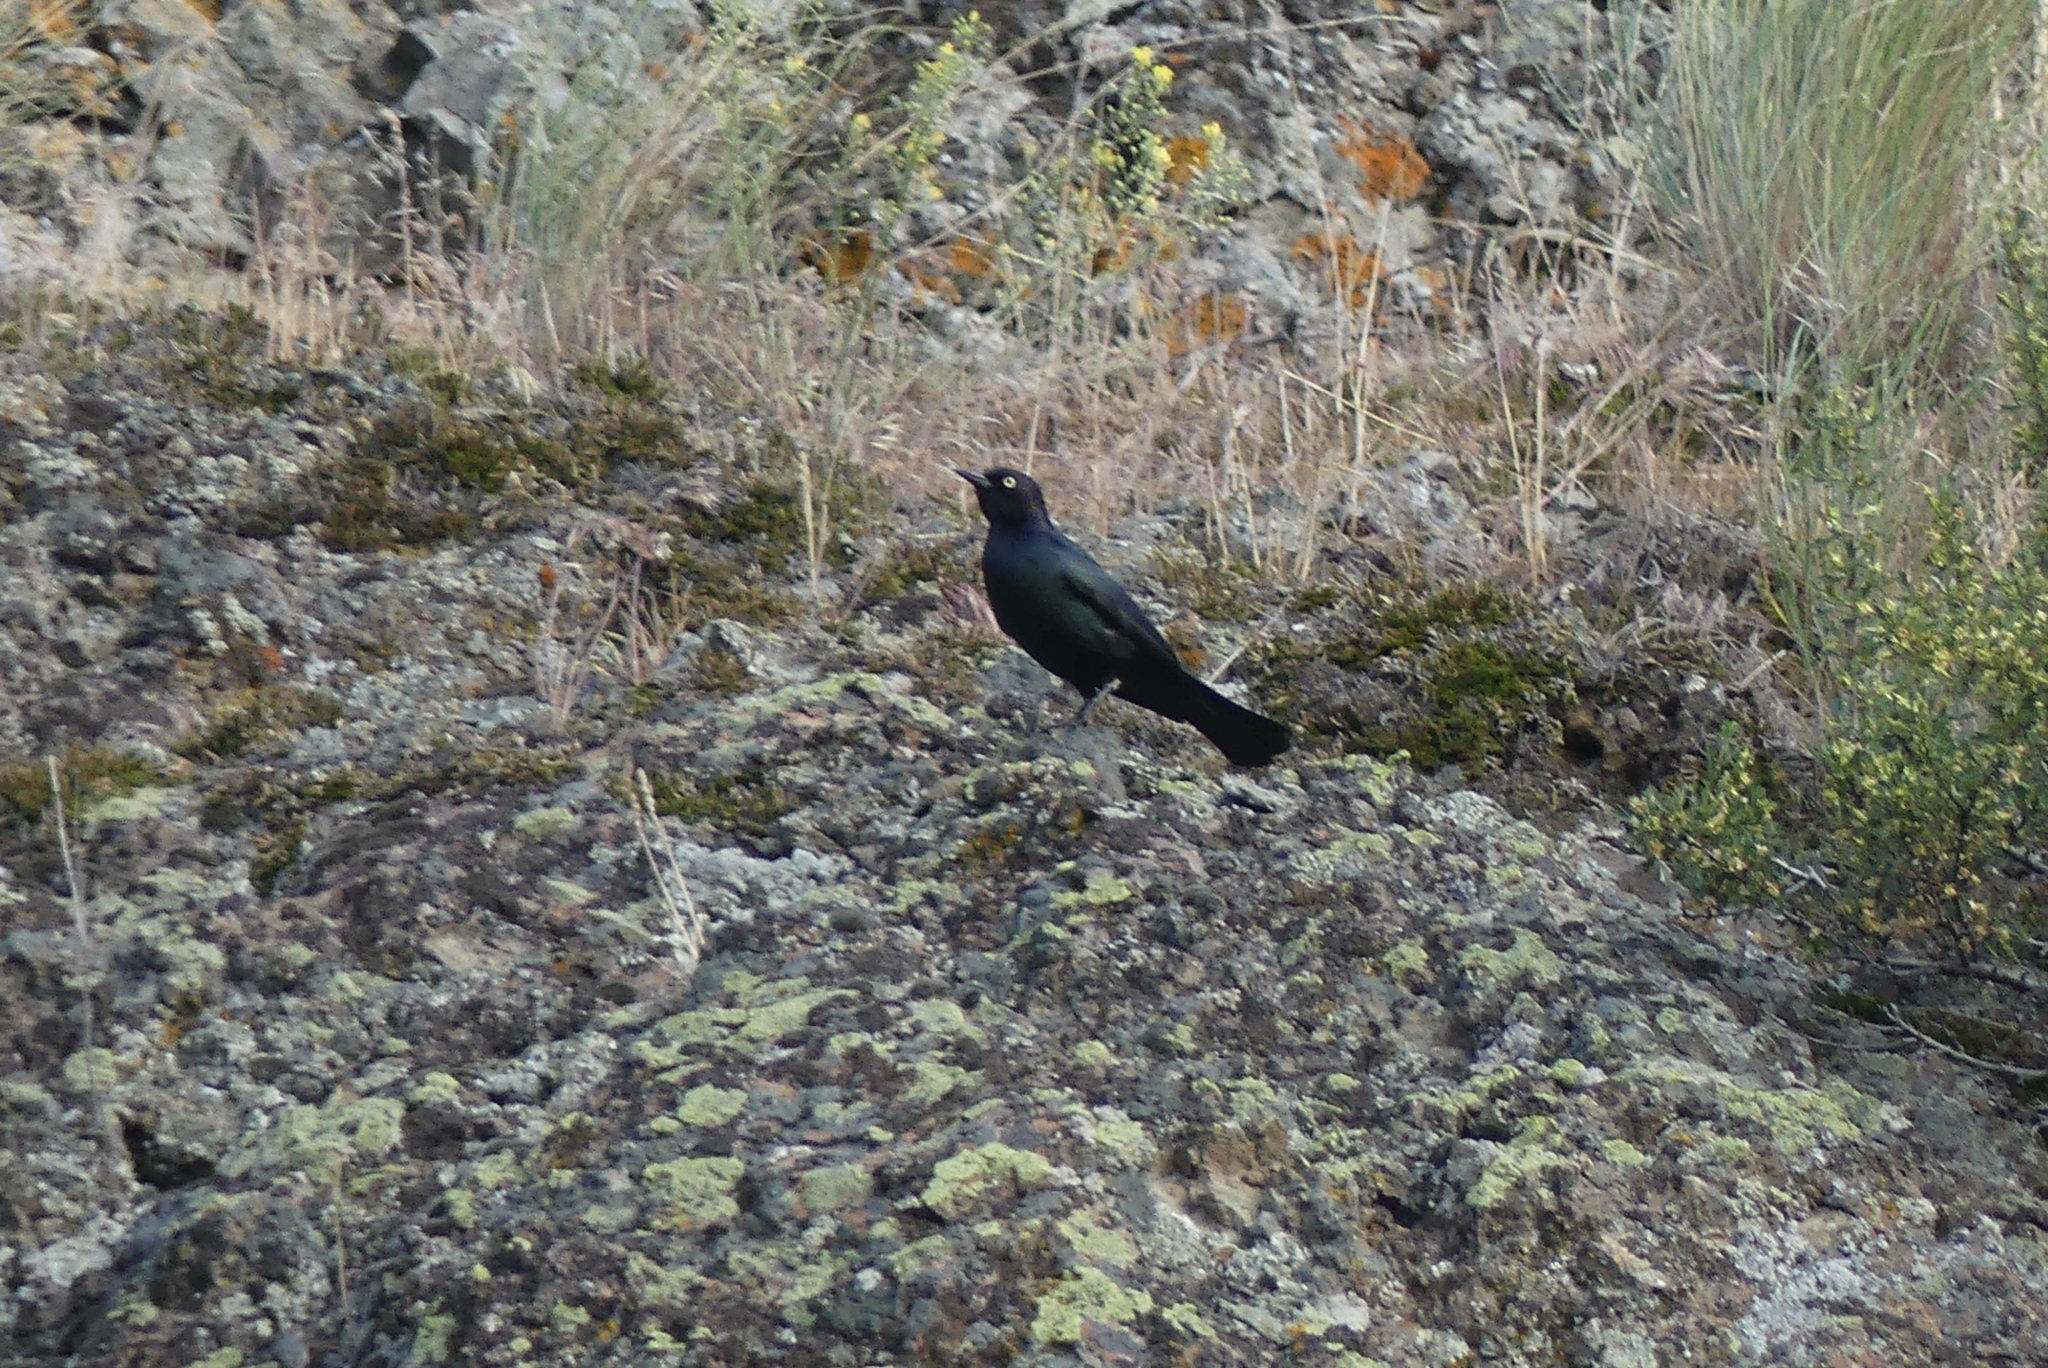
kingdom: Animalia
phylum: Chordata
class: Aves
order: Passeriformes
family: Icteridae
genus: Euphagus
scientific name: Euphagus cyanocephalus
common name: Brewer's blackbird
